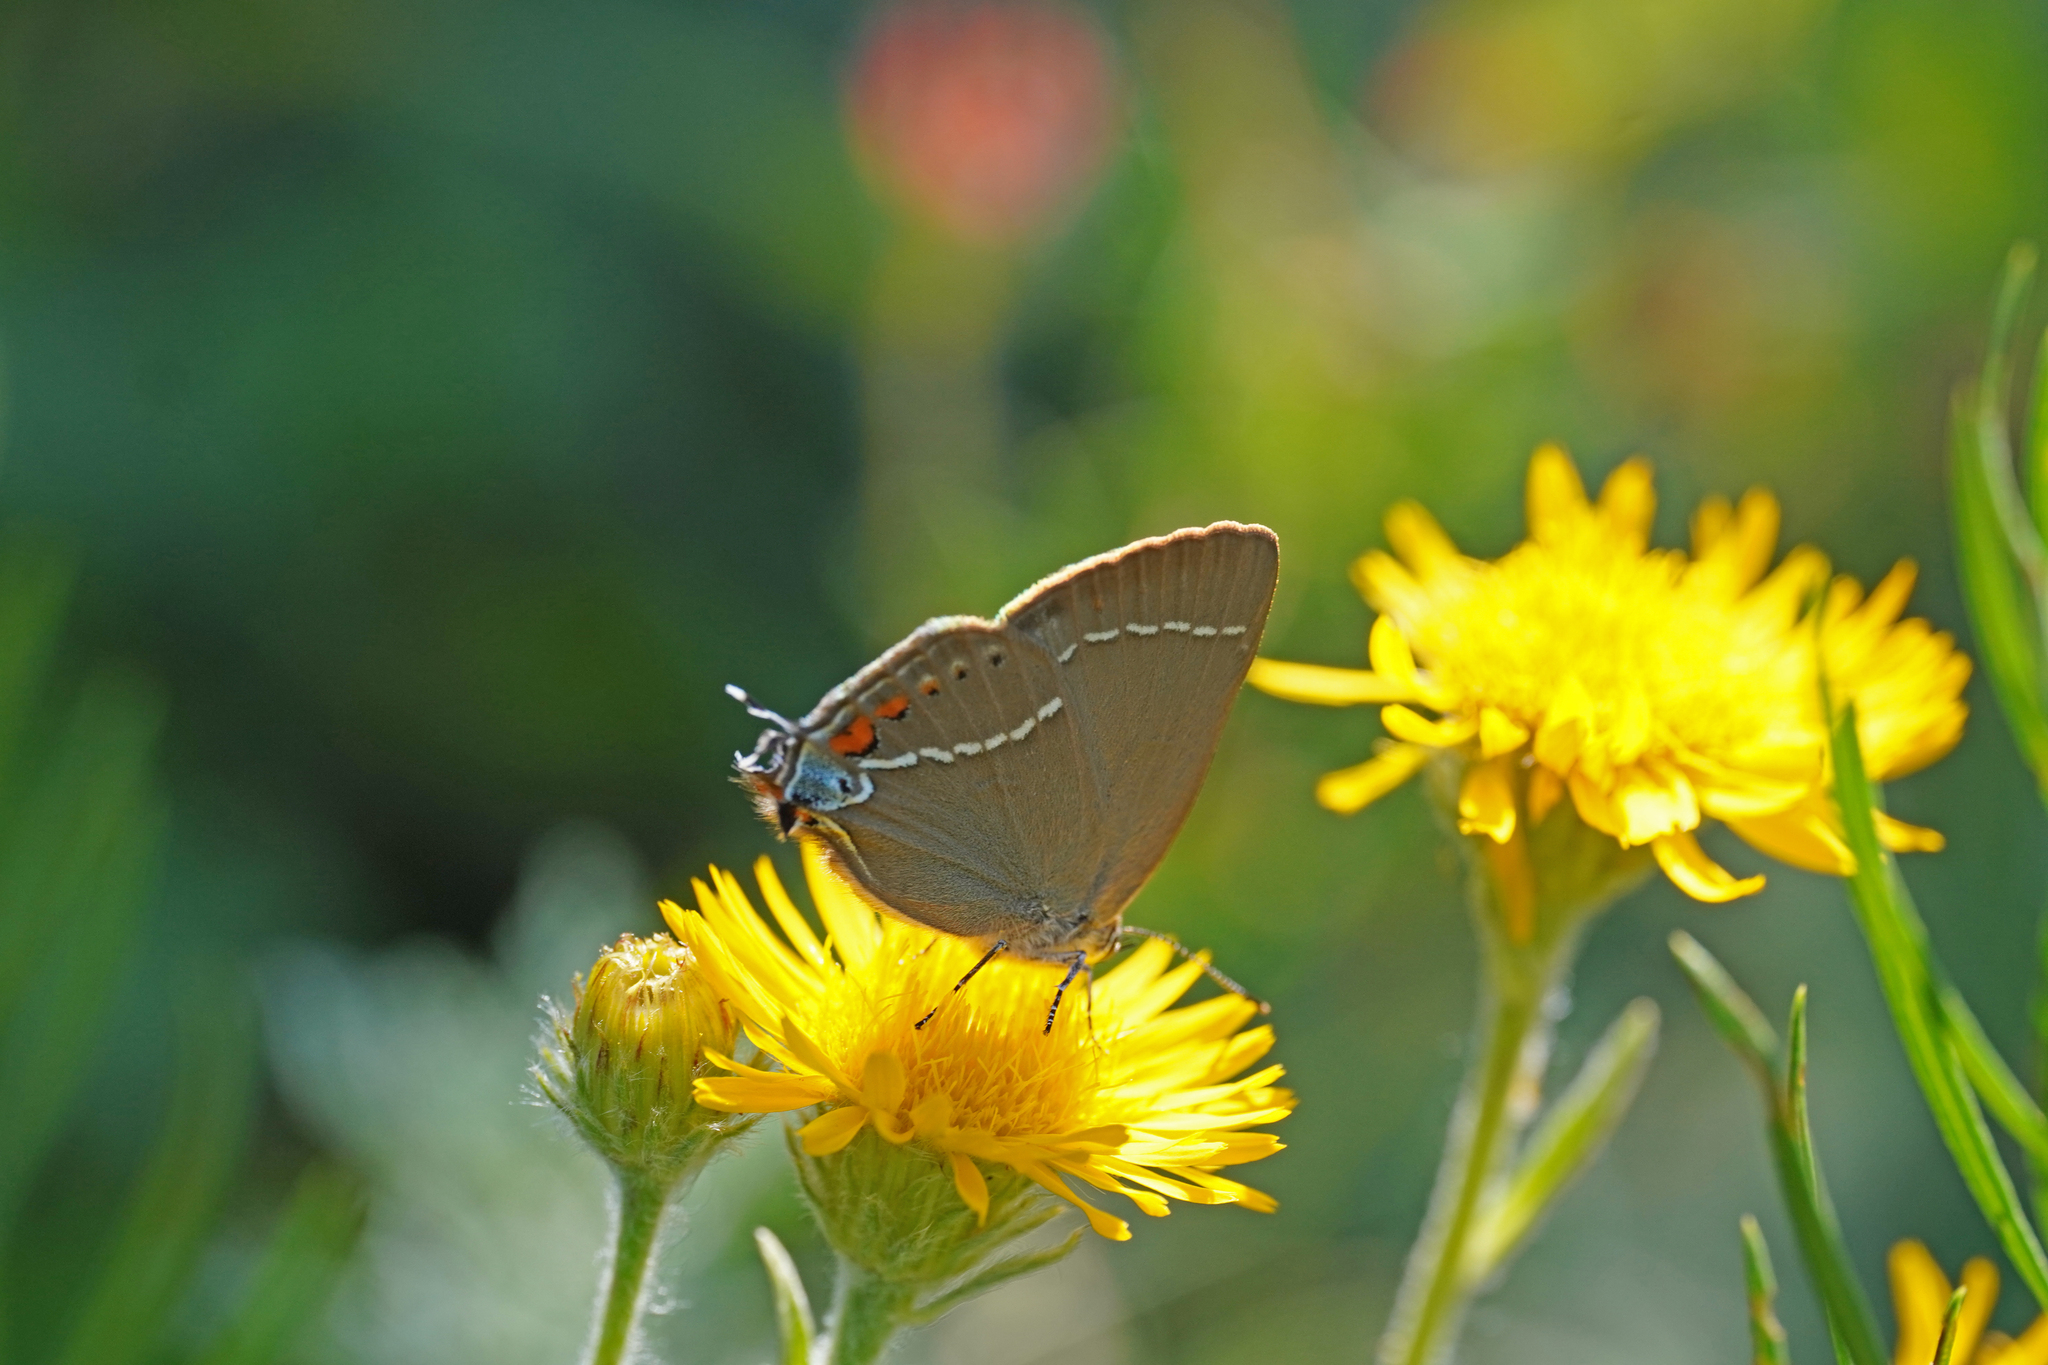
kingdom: Animalia
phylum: Arthropoda
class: Insecta
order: Lepidoptera
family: Lycaenidae
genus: Tuttiola
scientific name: Tuttiola spini
